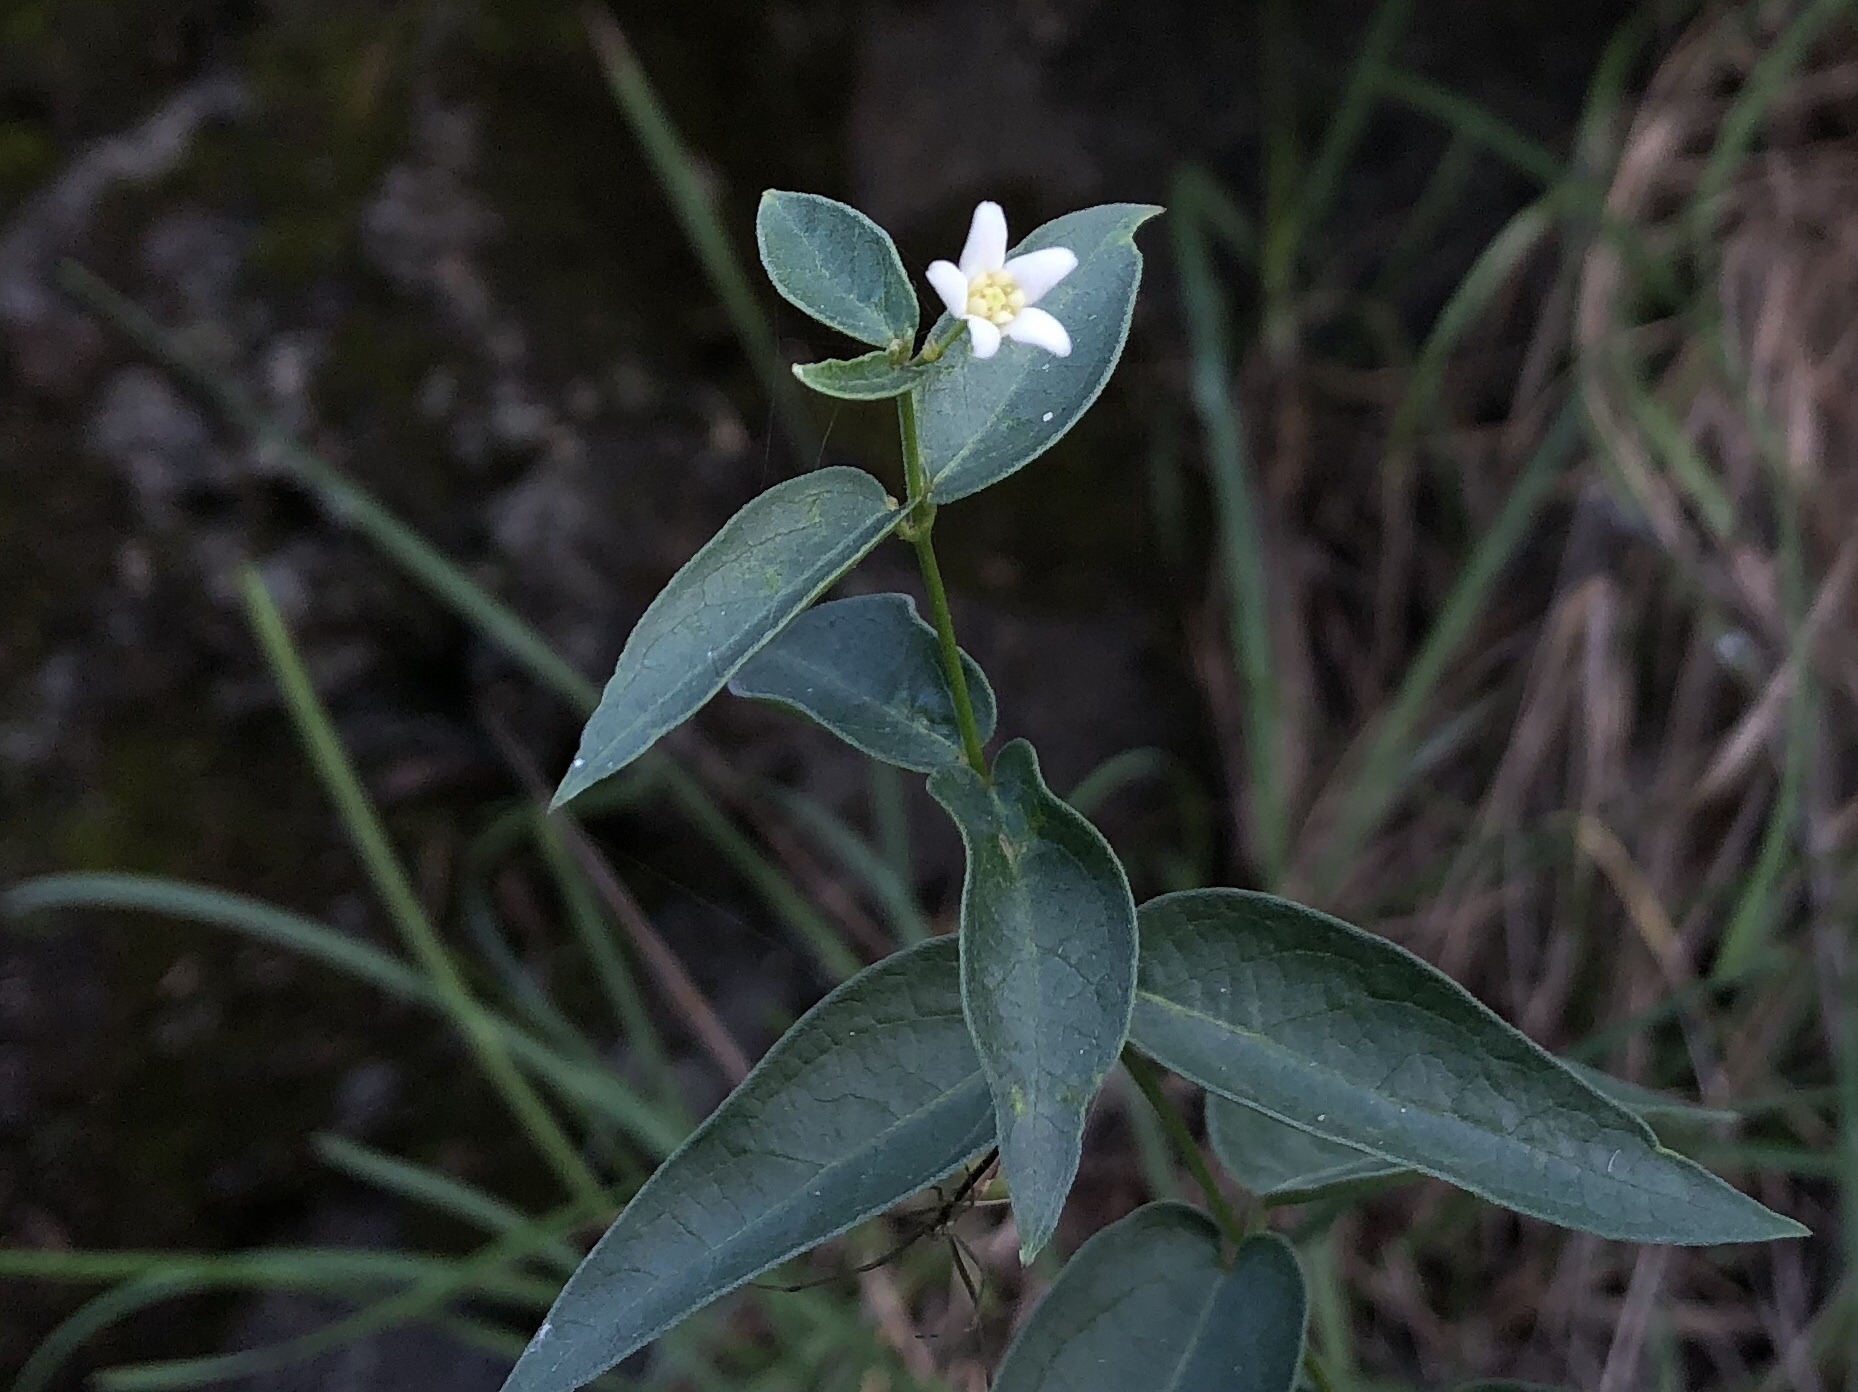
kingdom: Plantae
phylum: Tracheophyta
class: Magnoliopsida
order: Gentianales
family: Apocynaceae
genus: Vincetoxicum
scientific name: Vincetoxicum hirundinaria
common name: White swallowwort
